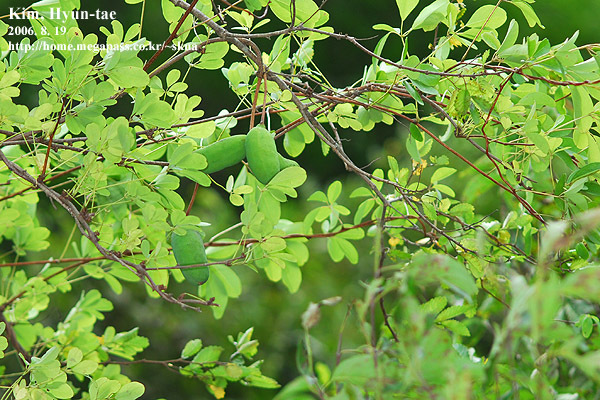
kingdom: Plantae
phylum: Tracheophyta
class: Magnoliopsida
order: Ranunculales
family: Lardizabalaceae
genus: Akebia
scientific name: Akebia quinata
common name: Five-leaf akebia
